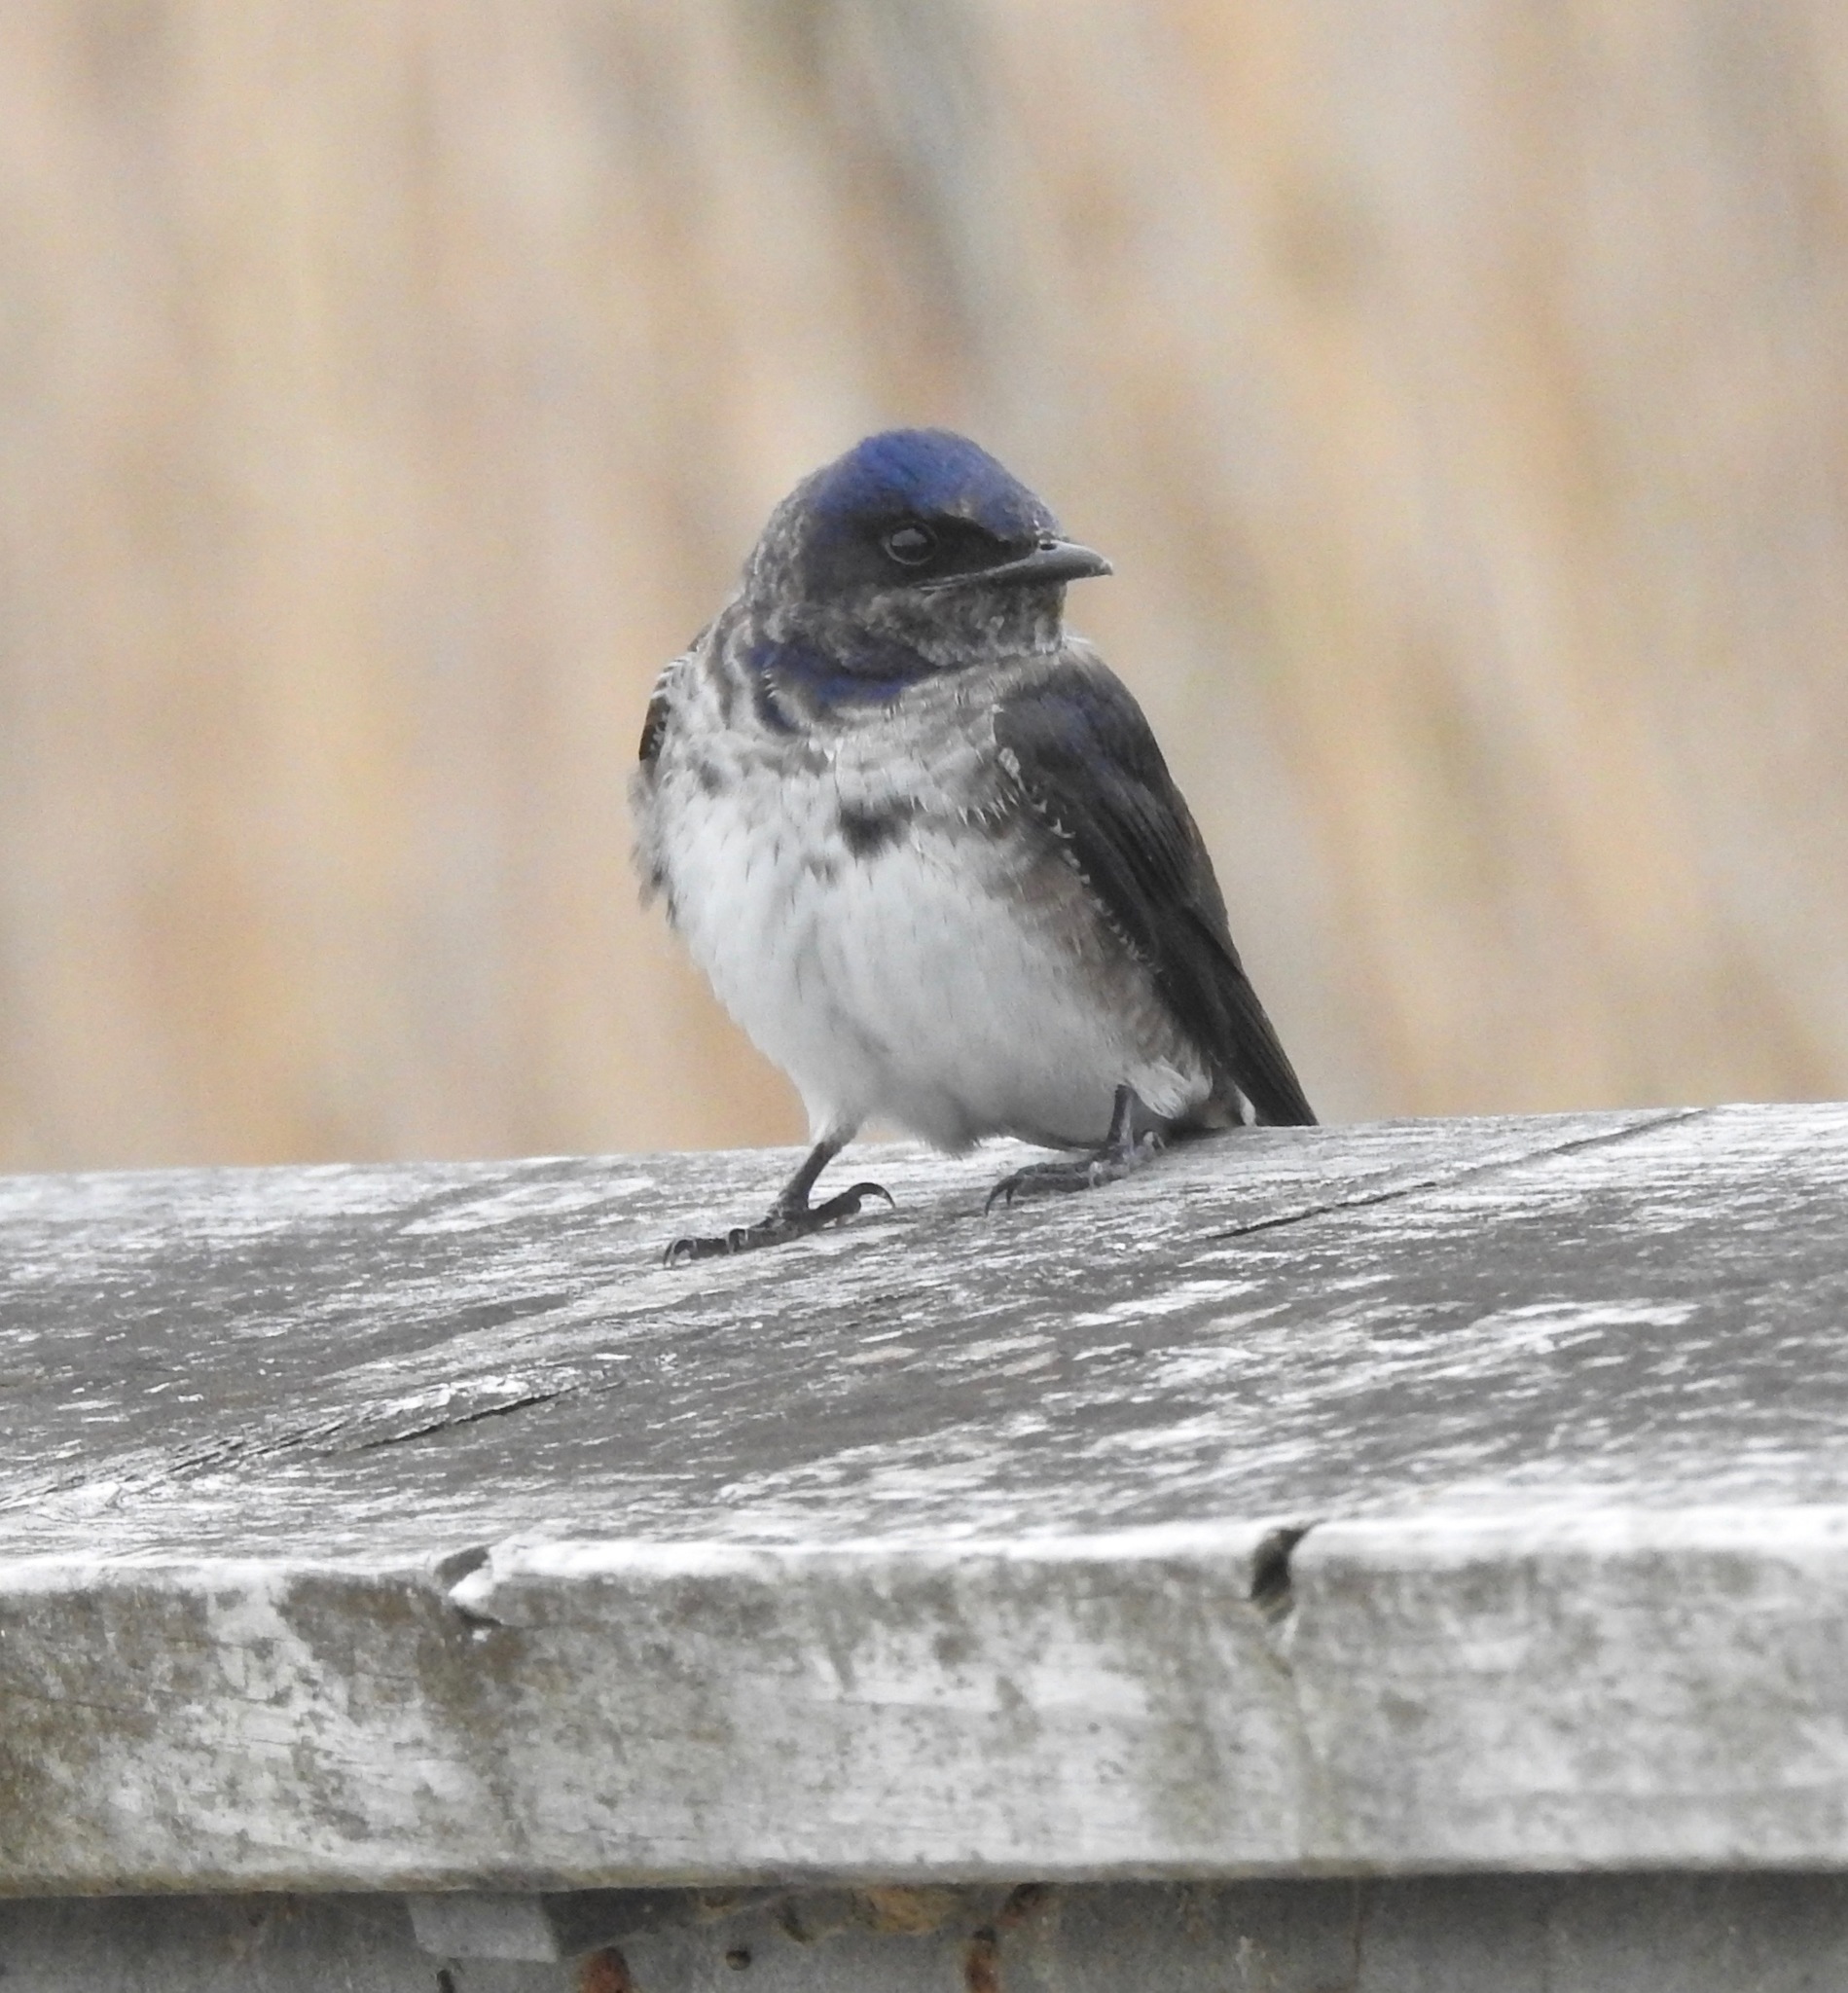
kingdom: Animalia
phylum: Chordata
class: Aves
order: Passeriformes
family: Hirundinidae
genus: Progne
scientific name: Progne subis
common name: Purple martin
